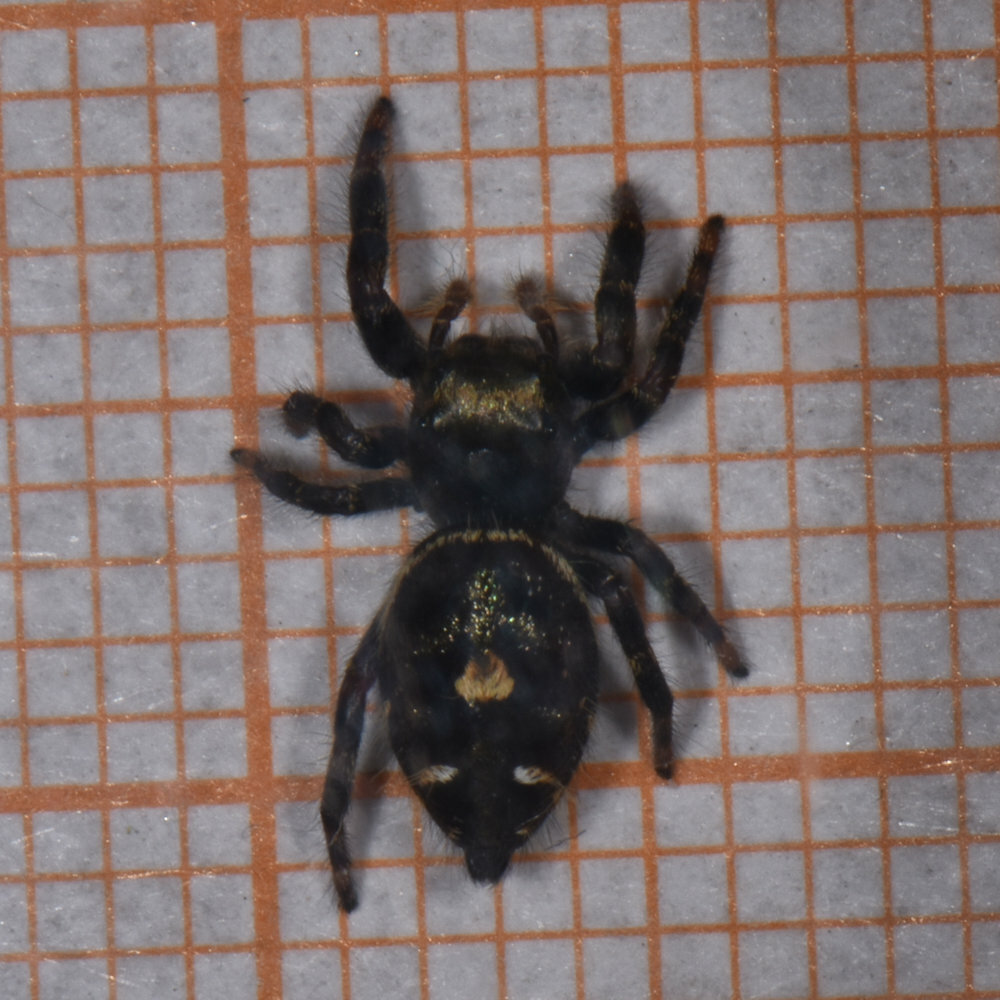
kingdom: Animalia
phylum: Arthropoda
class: Arachnida
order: Araneae
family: Salticidae
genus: Phidippus
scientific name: Phidippus audax
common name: Bold jumper
